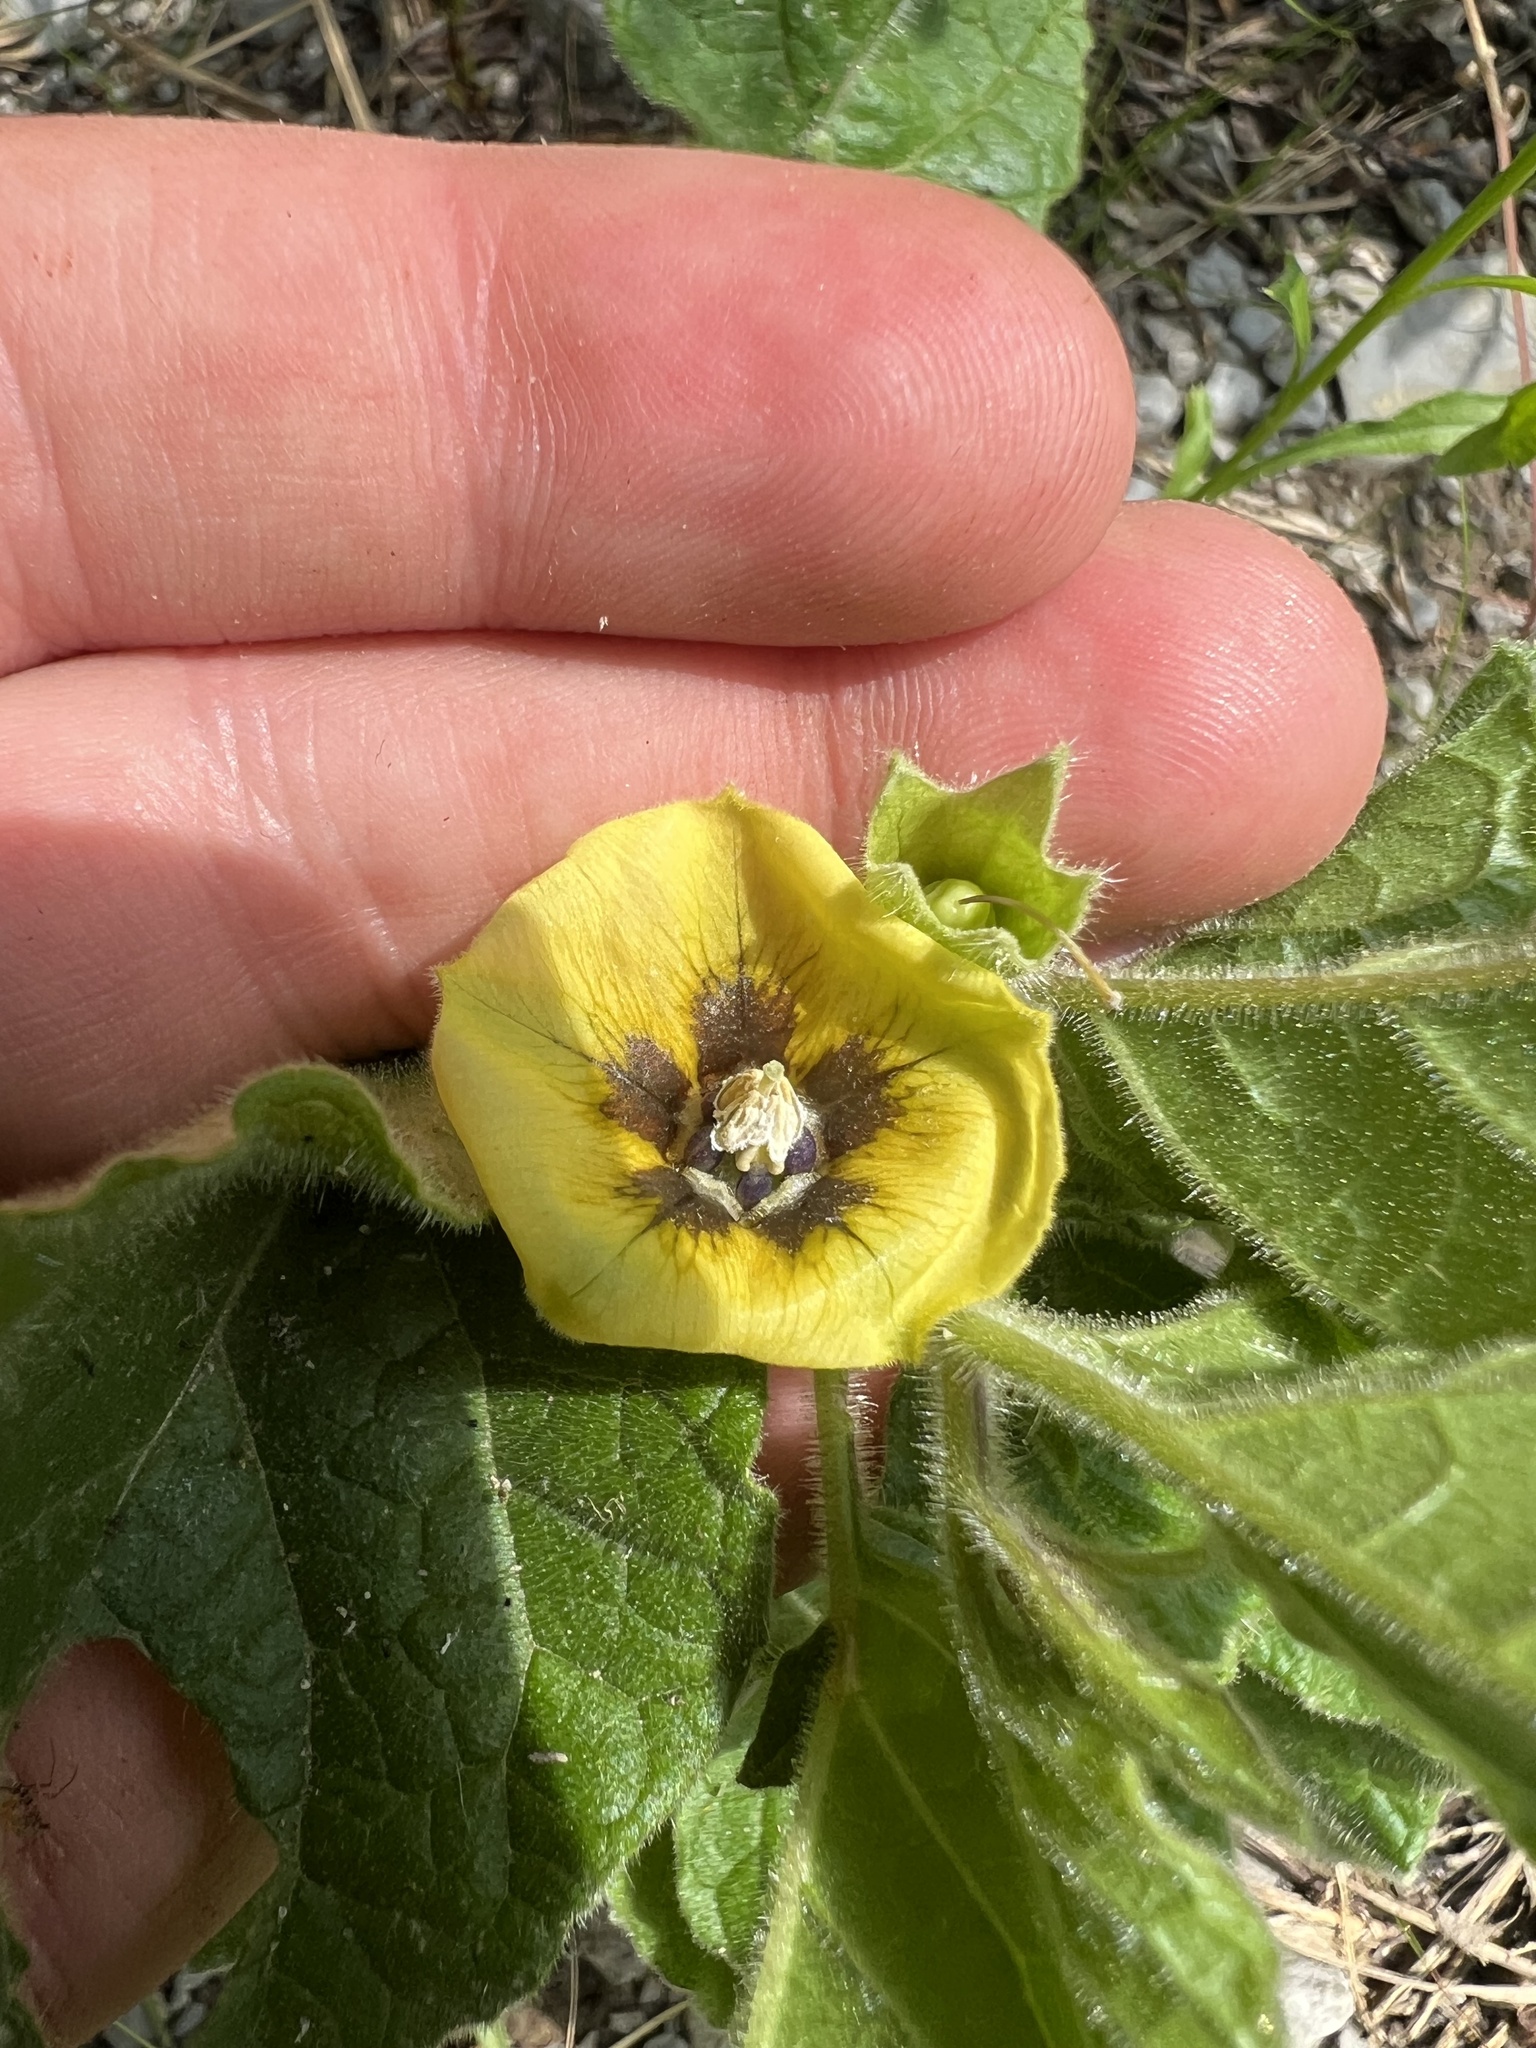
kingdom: Plantae
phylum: Tracheophyta
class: Magnoliopsida
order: Solanales
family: Solanaceae
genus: Physalis
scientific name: Physalis heterophylla
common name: Clammy ground-cherry
